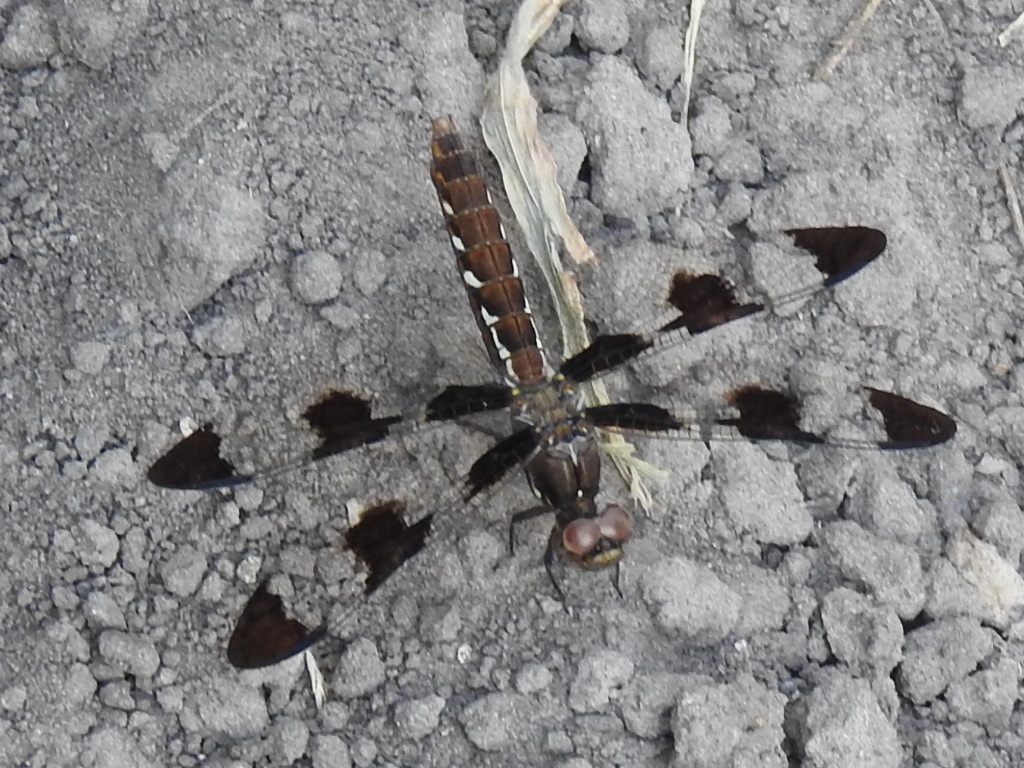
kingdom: Animalia
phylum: Arthropoda
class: Insecta
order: Odonata
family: Libellulidae
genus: Plathemis
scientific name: Plathemis lydia
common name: Common whitetail
